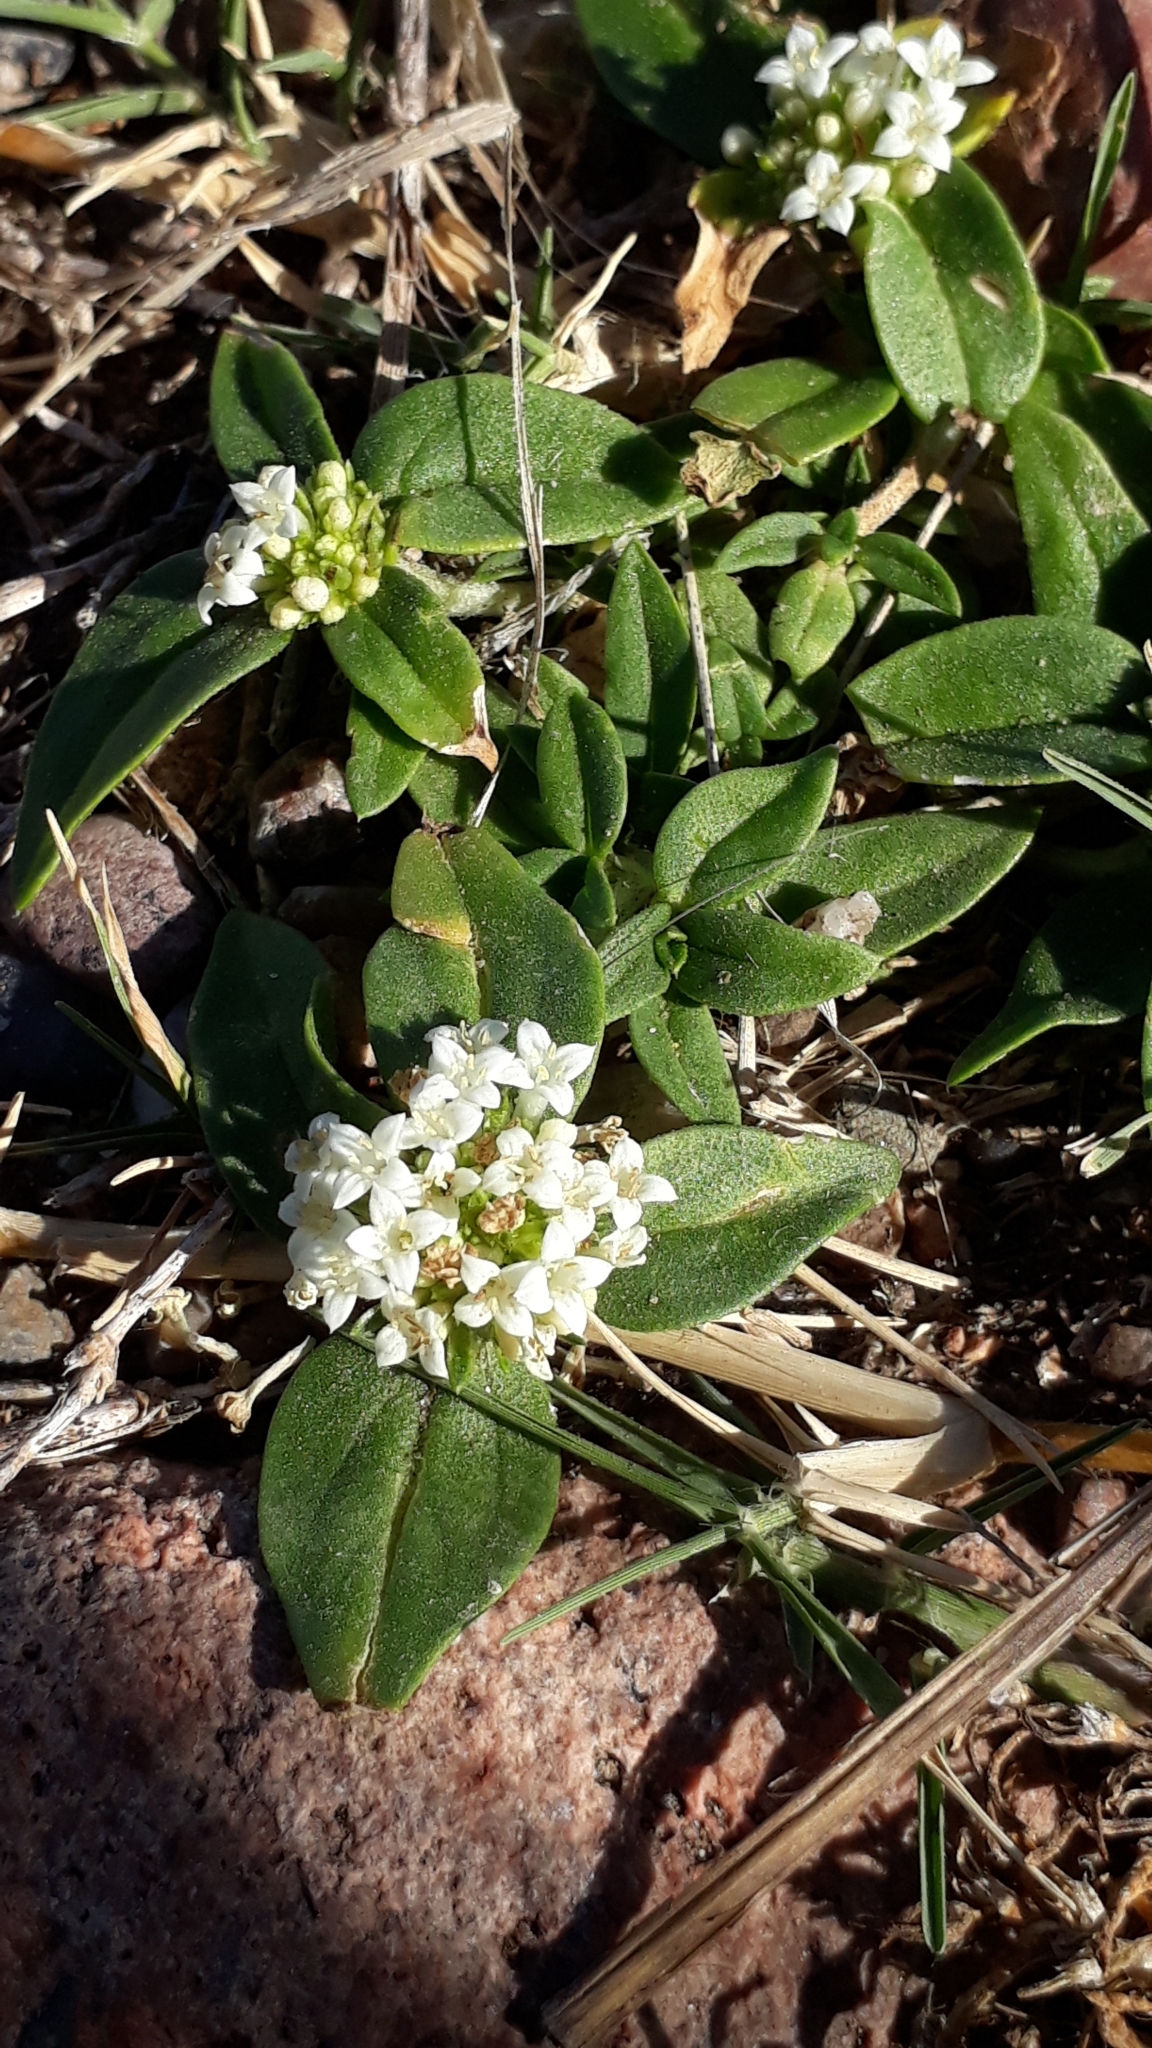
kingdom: Plantae
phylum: Tracheophyta
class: Magnoliopsida
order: Gentianales
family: Rubiaceae
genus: Richardia
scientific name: Richardia brasiliensis
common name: Tropical mexican clover
